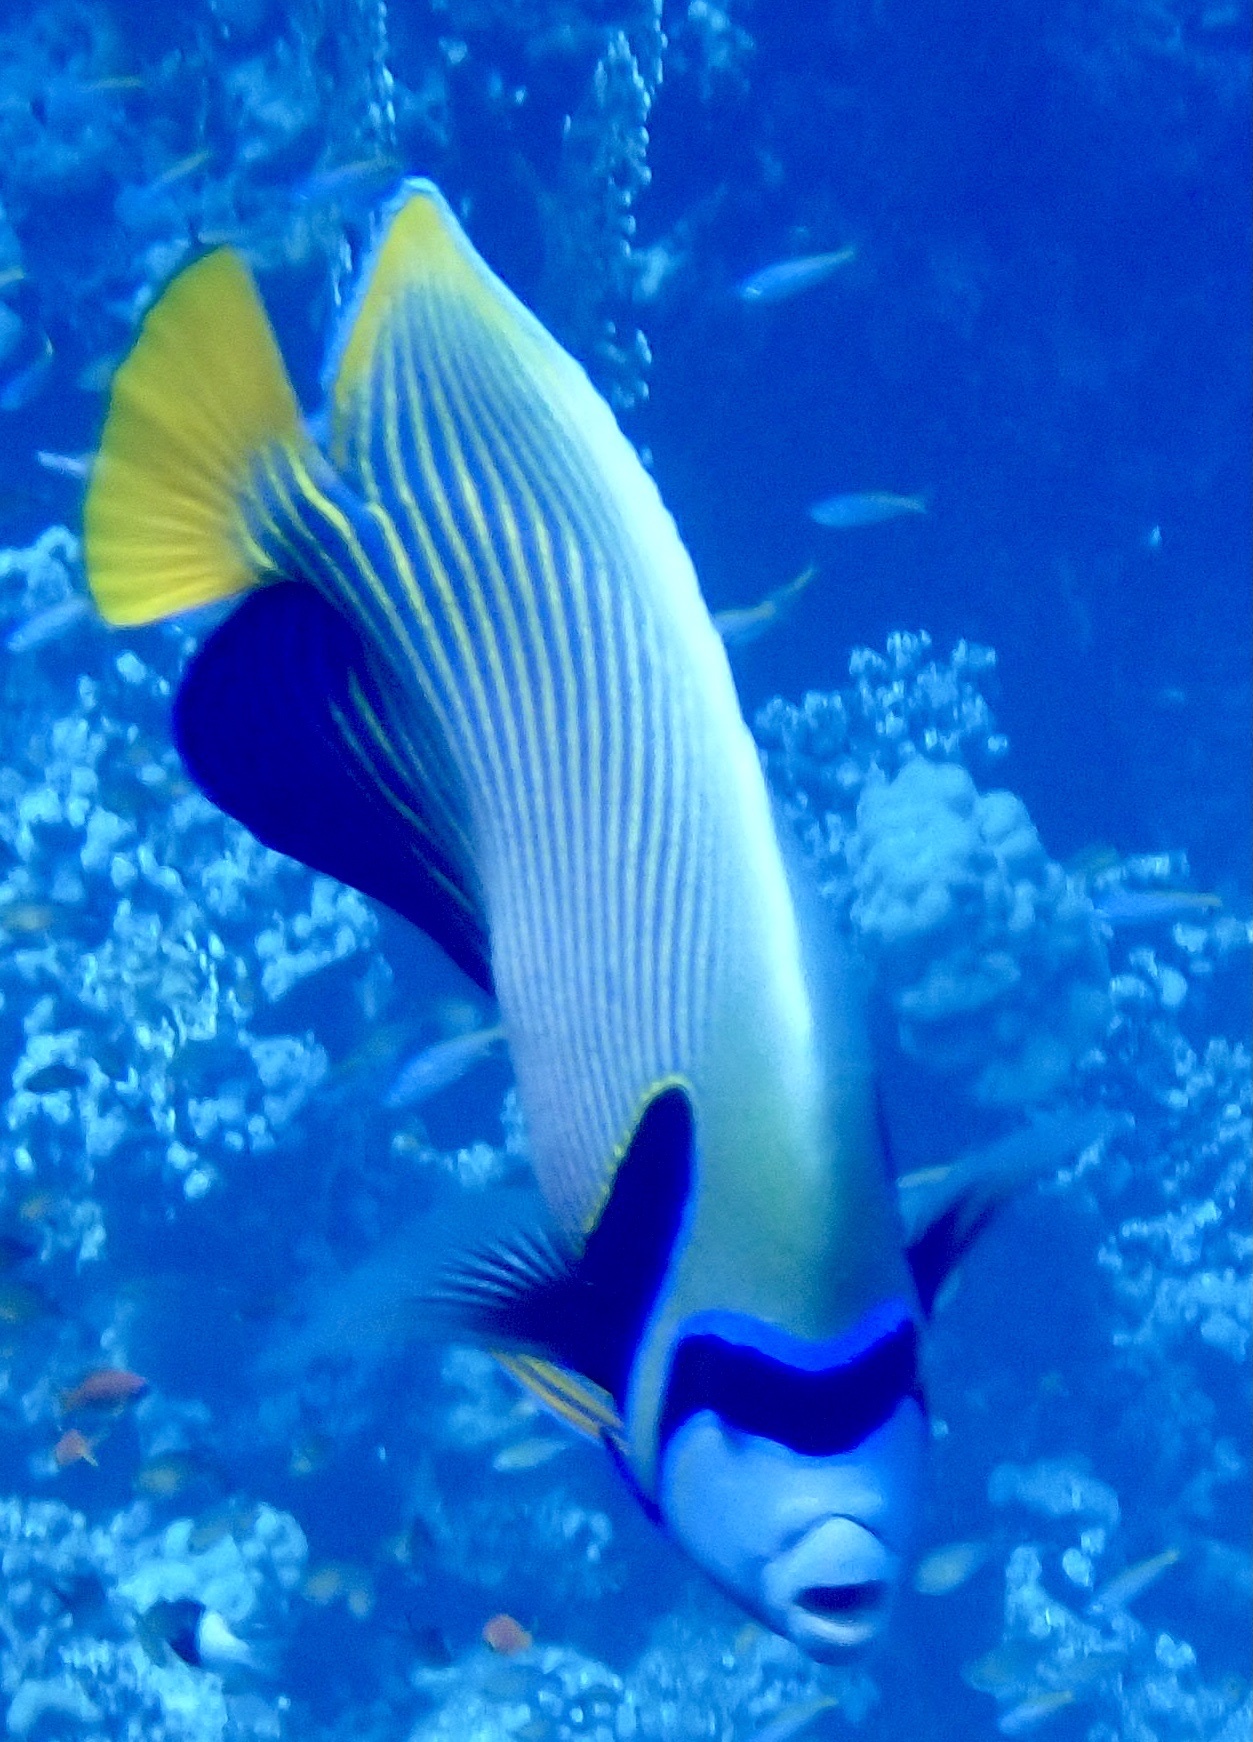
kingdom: Animalia
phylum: Chordata
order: Perciformes
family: Pomacanthidae
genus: Pomacanthus
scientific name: Pomacanthus imperator
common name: Emperor angelfish
